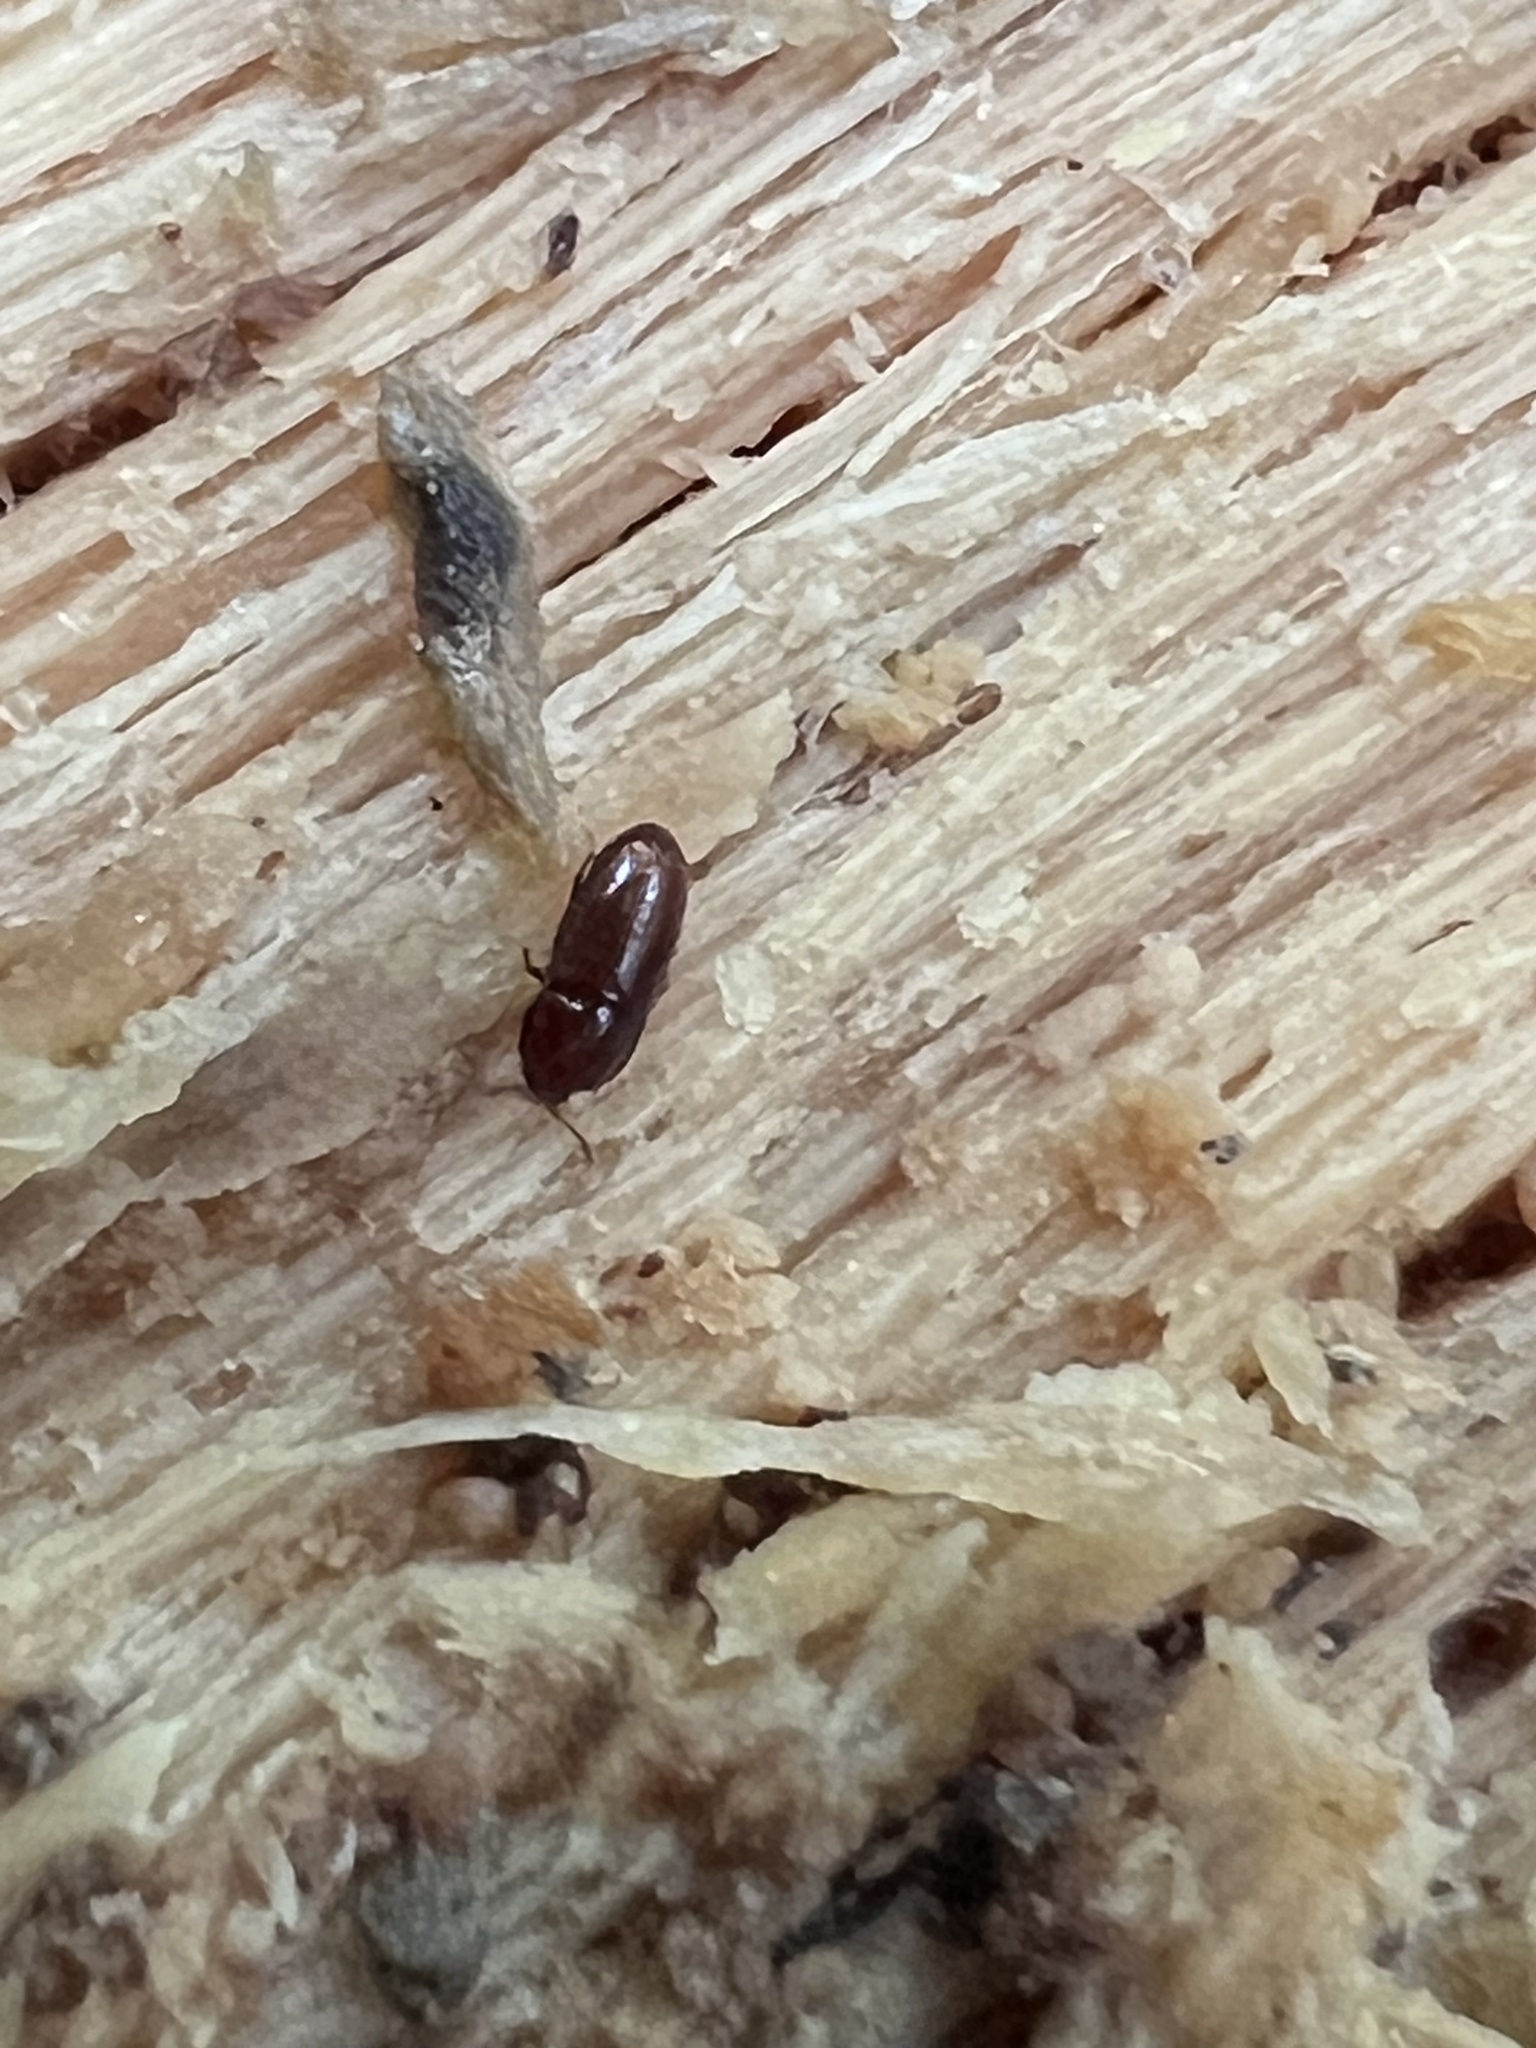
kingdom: Animalia
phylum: Arthropoda
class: Insecta
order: Coleoptera
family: Cerylonidae
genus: Philothermus
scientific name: Philothermus glabriculus
